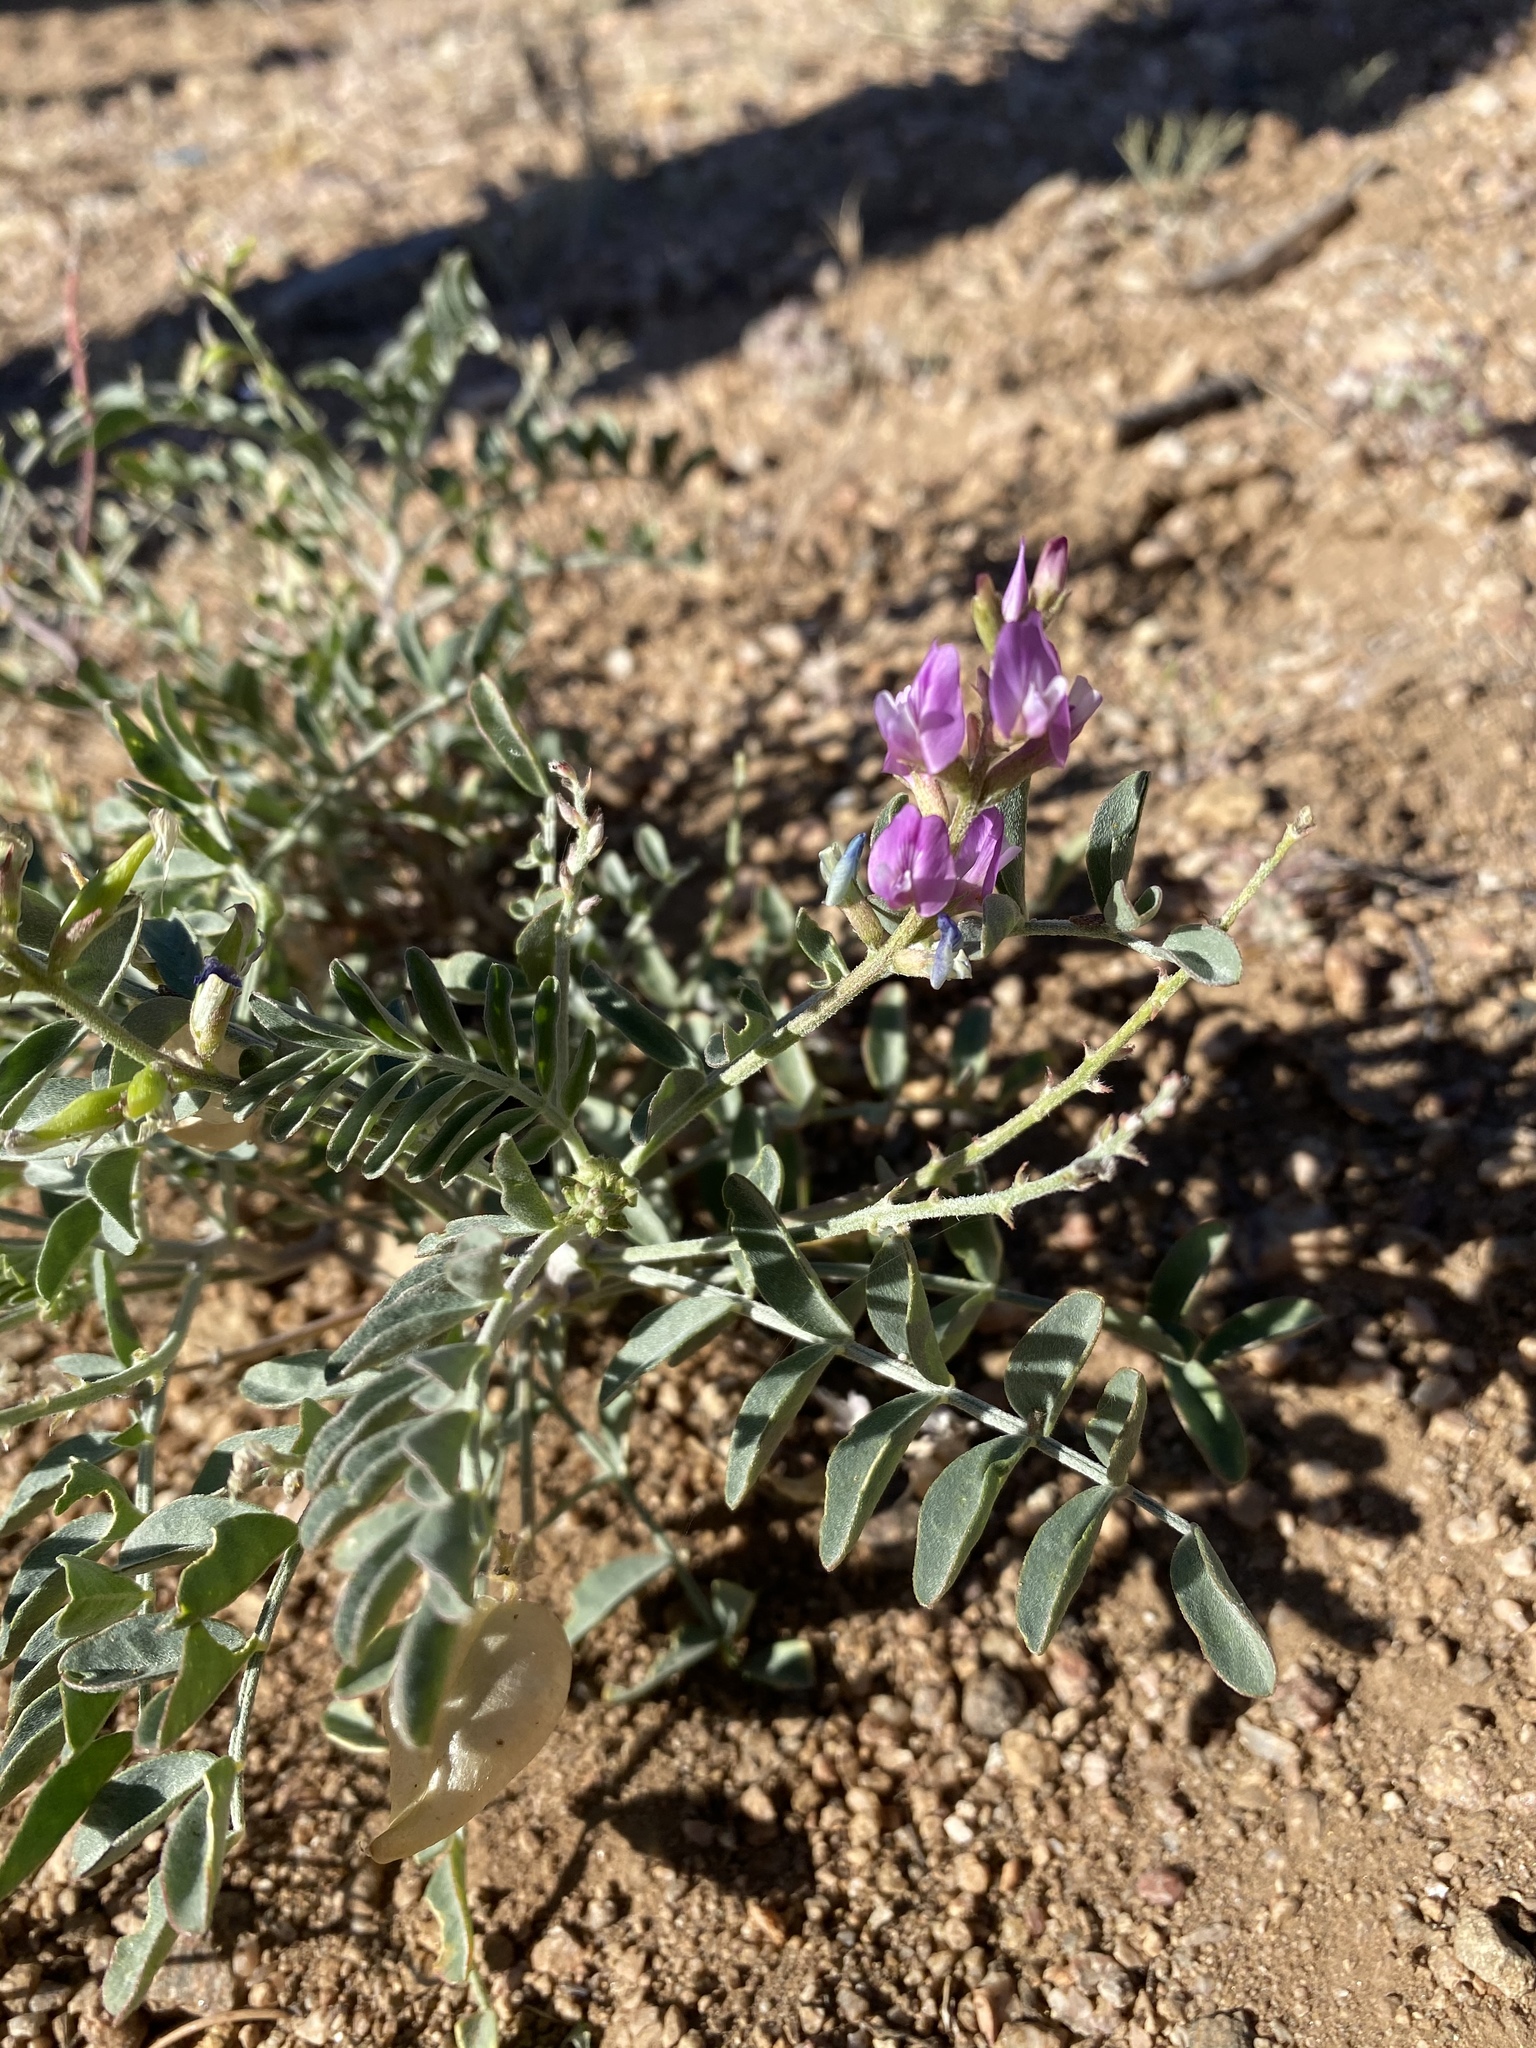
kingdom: Plantae
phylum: Tracheophyta
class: Magnoliopsida
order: Fabales
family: Fabaceae
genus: Astragalus
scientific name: Astragalus lentiginosus
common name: Freckled milkvetch
